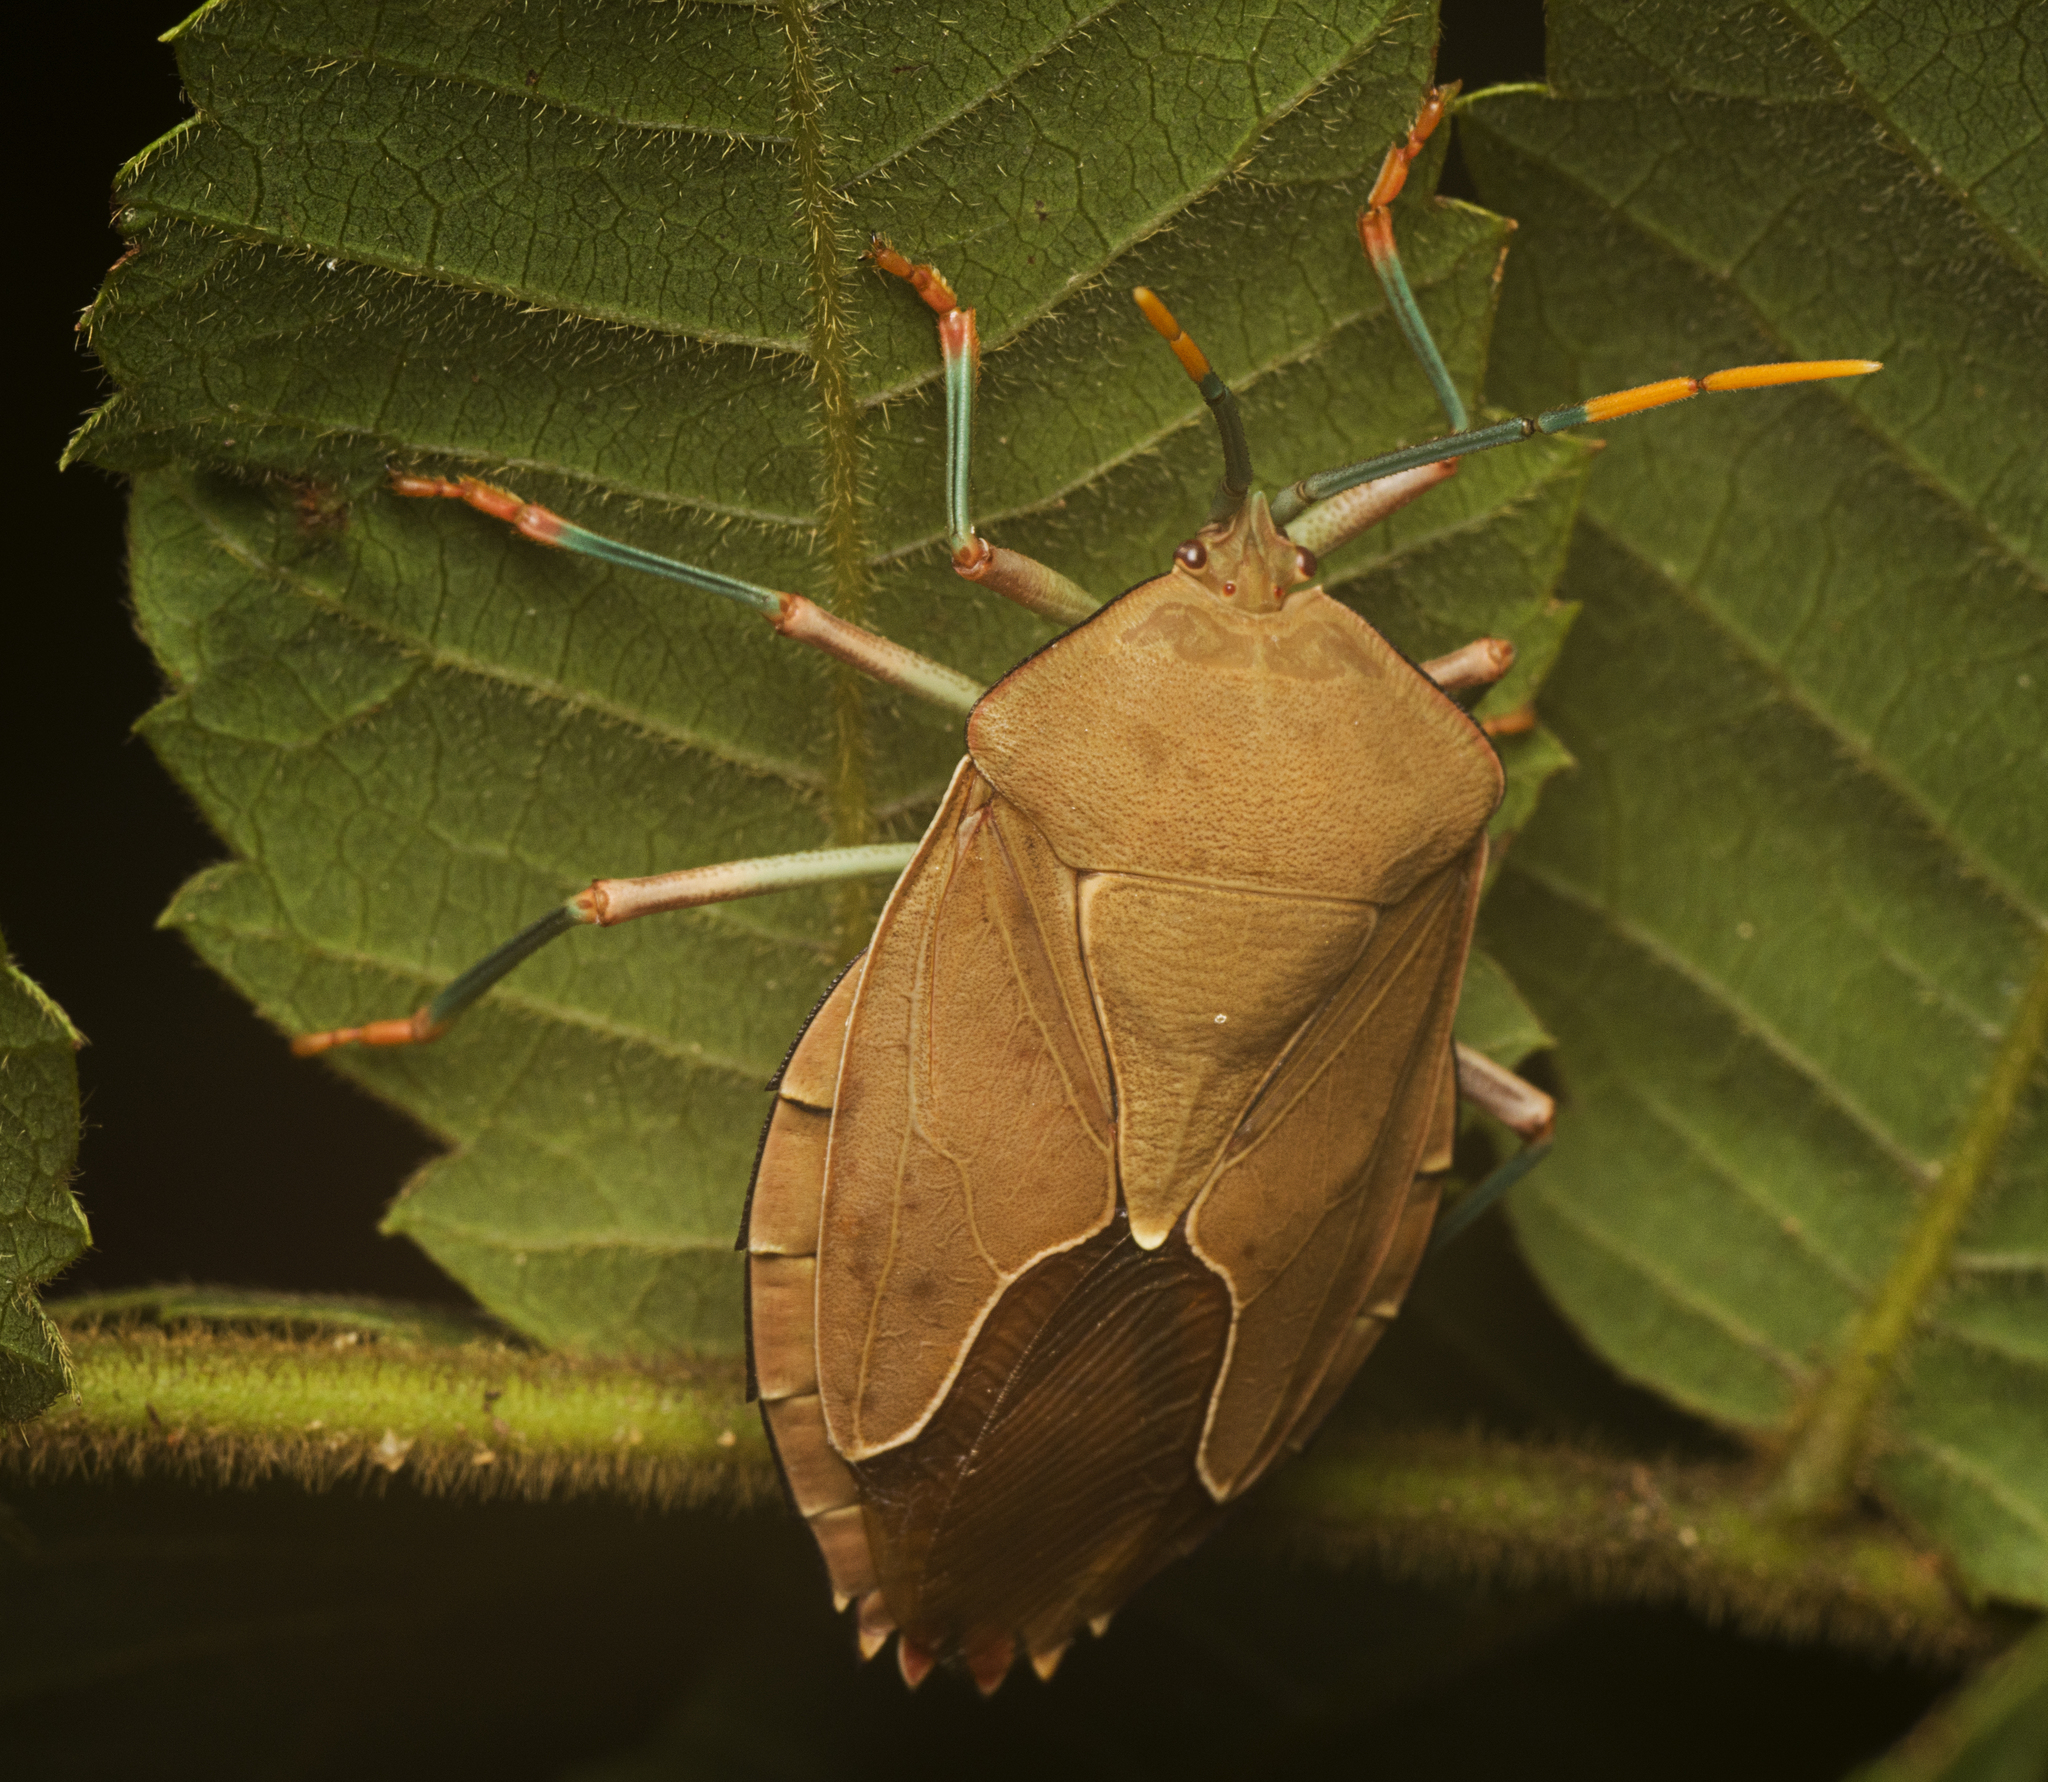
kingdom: Animalia
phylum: Arthropoda
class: Insecta
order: Hemiptera
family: Tessaratomidae
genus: Stilida
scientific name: Stilida indecora
